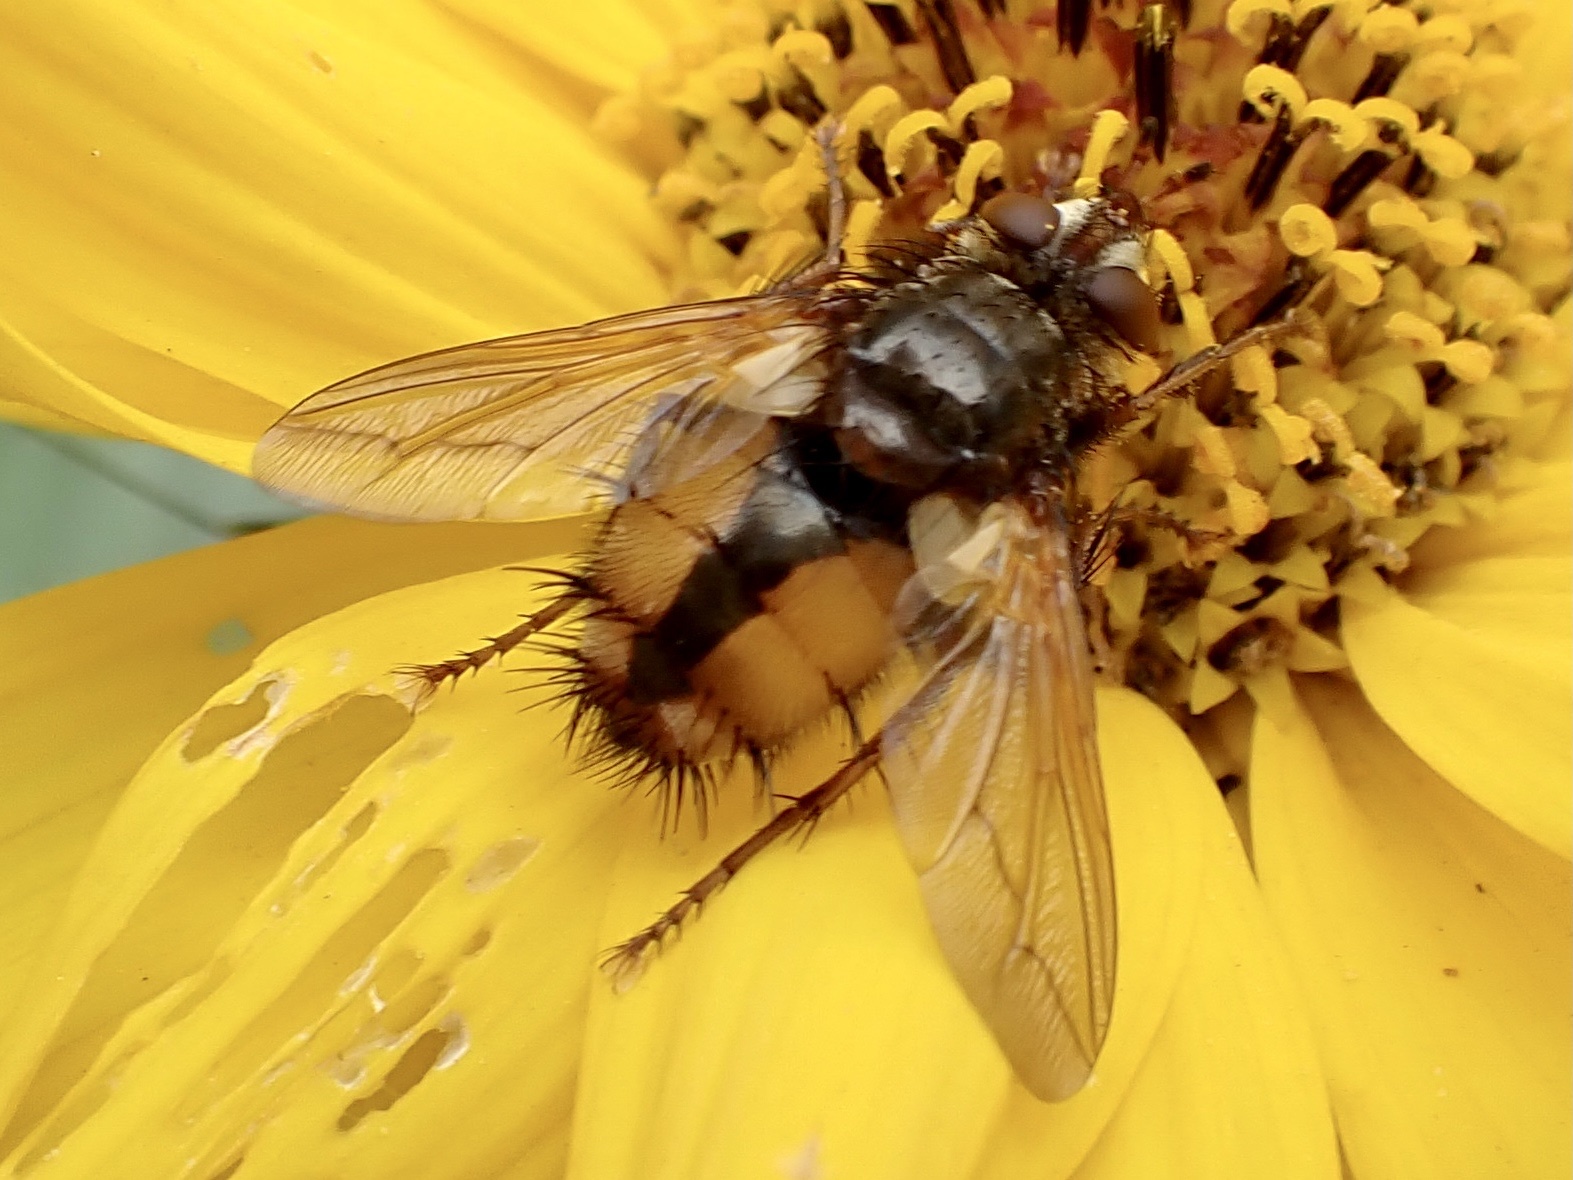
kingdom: Animalia
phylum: Arthropoda
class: Insecta
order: Diptera
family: Tachinidae
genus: Tachina
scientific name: Tachina fera
